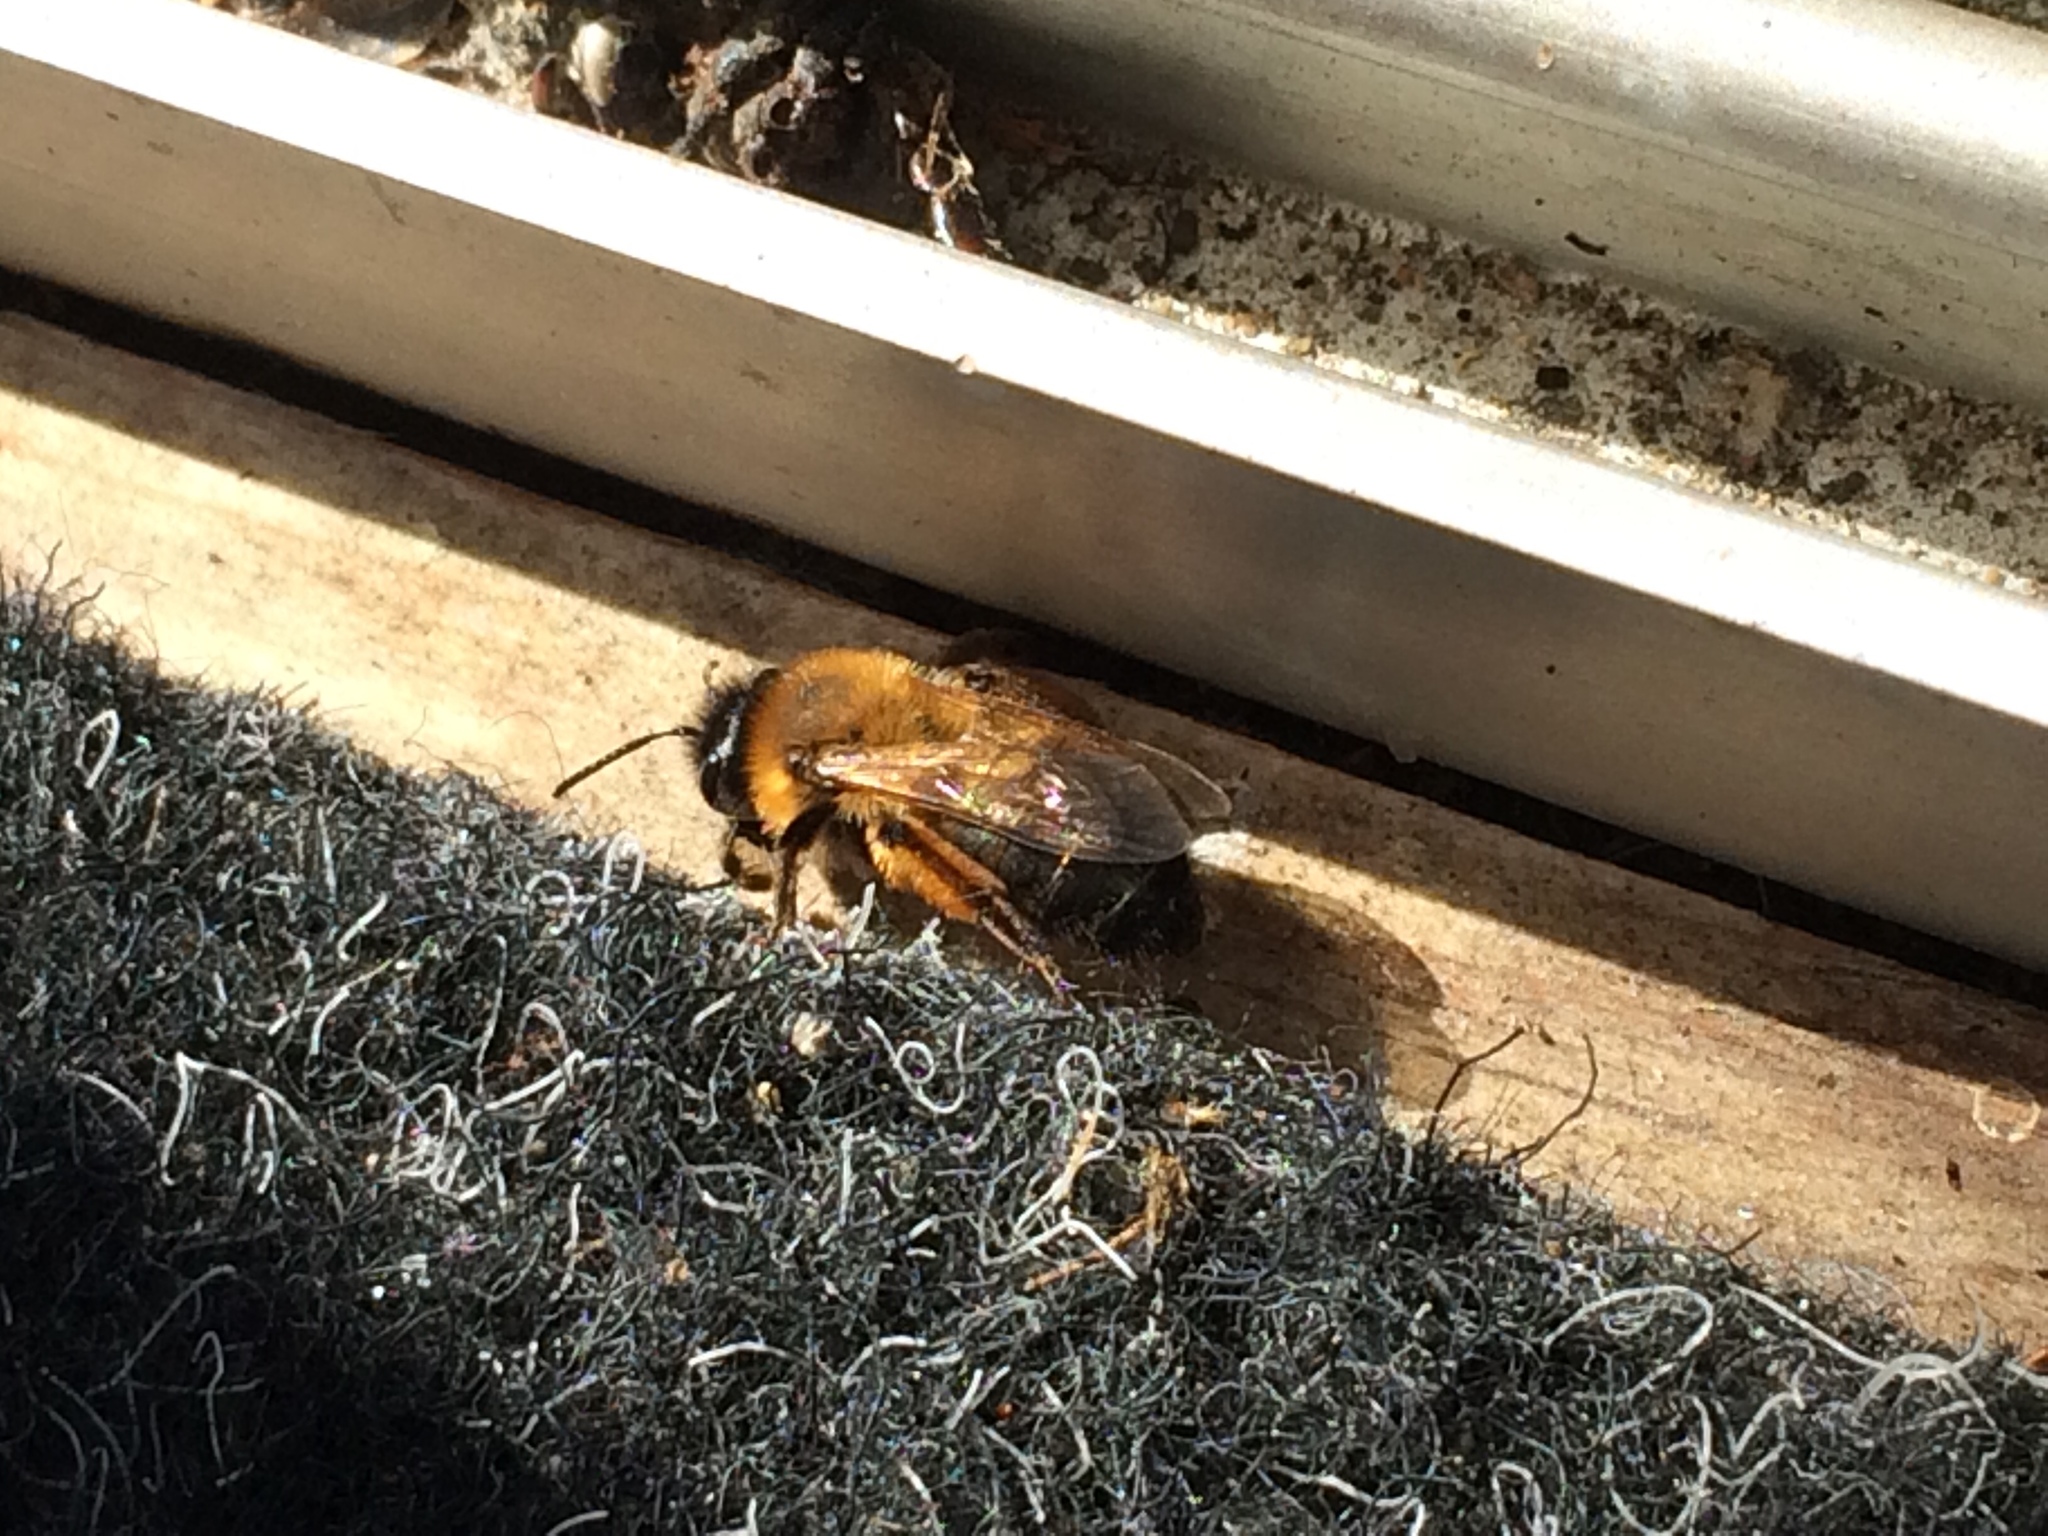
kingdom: Animalia
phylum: Arthropoda
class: Insecta
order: Hymenoptera
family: Andrenidae
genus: Andrena
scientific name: Andrena clarkella
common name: Clarke's mining bee
